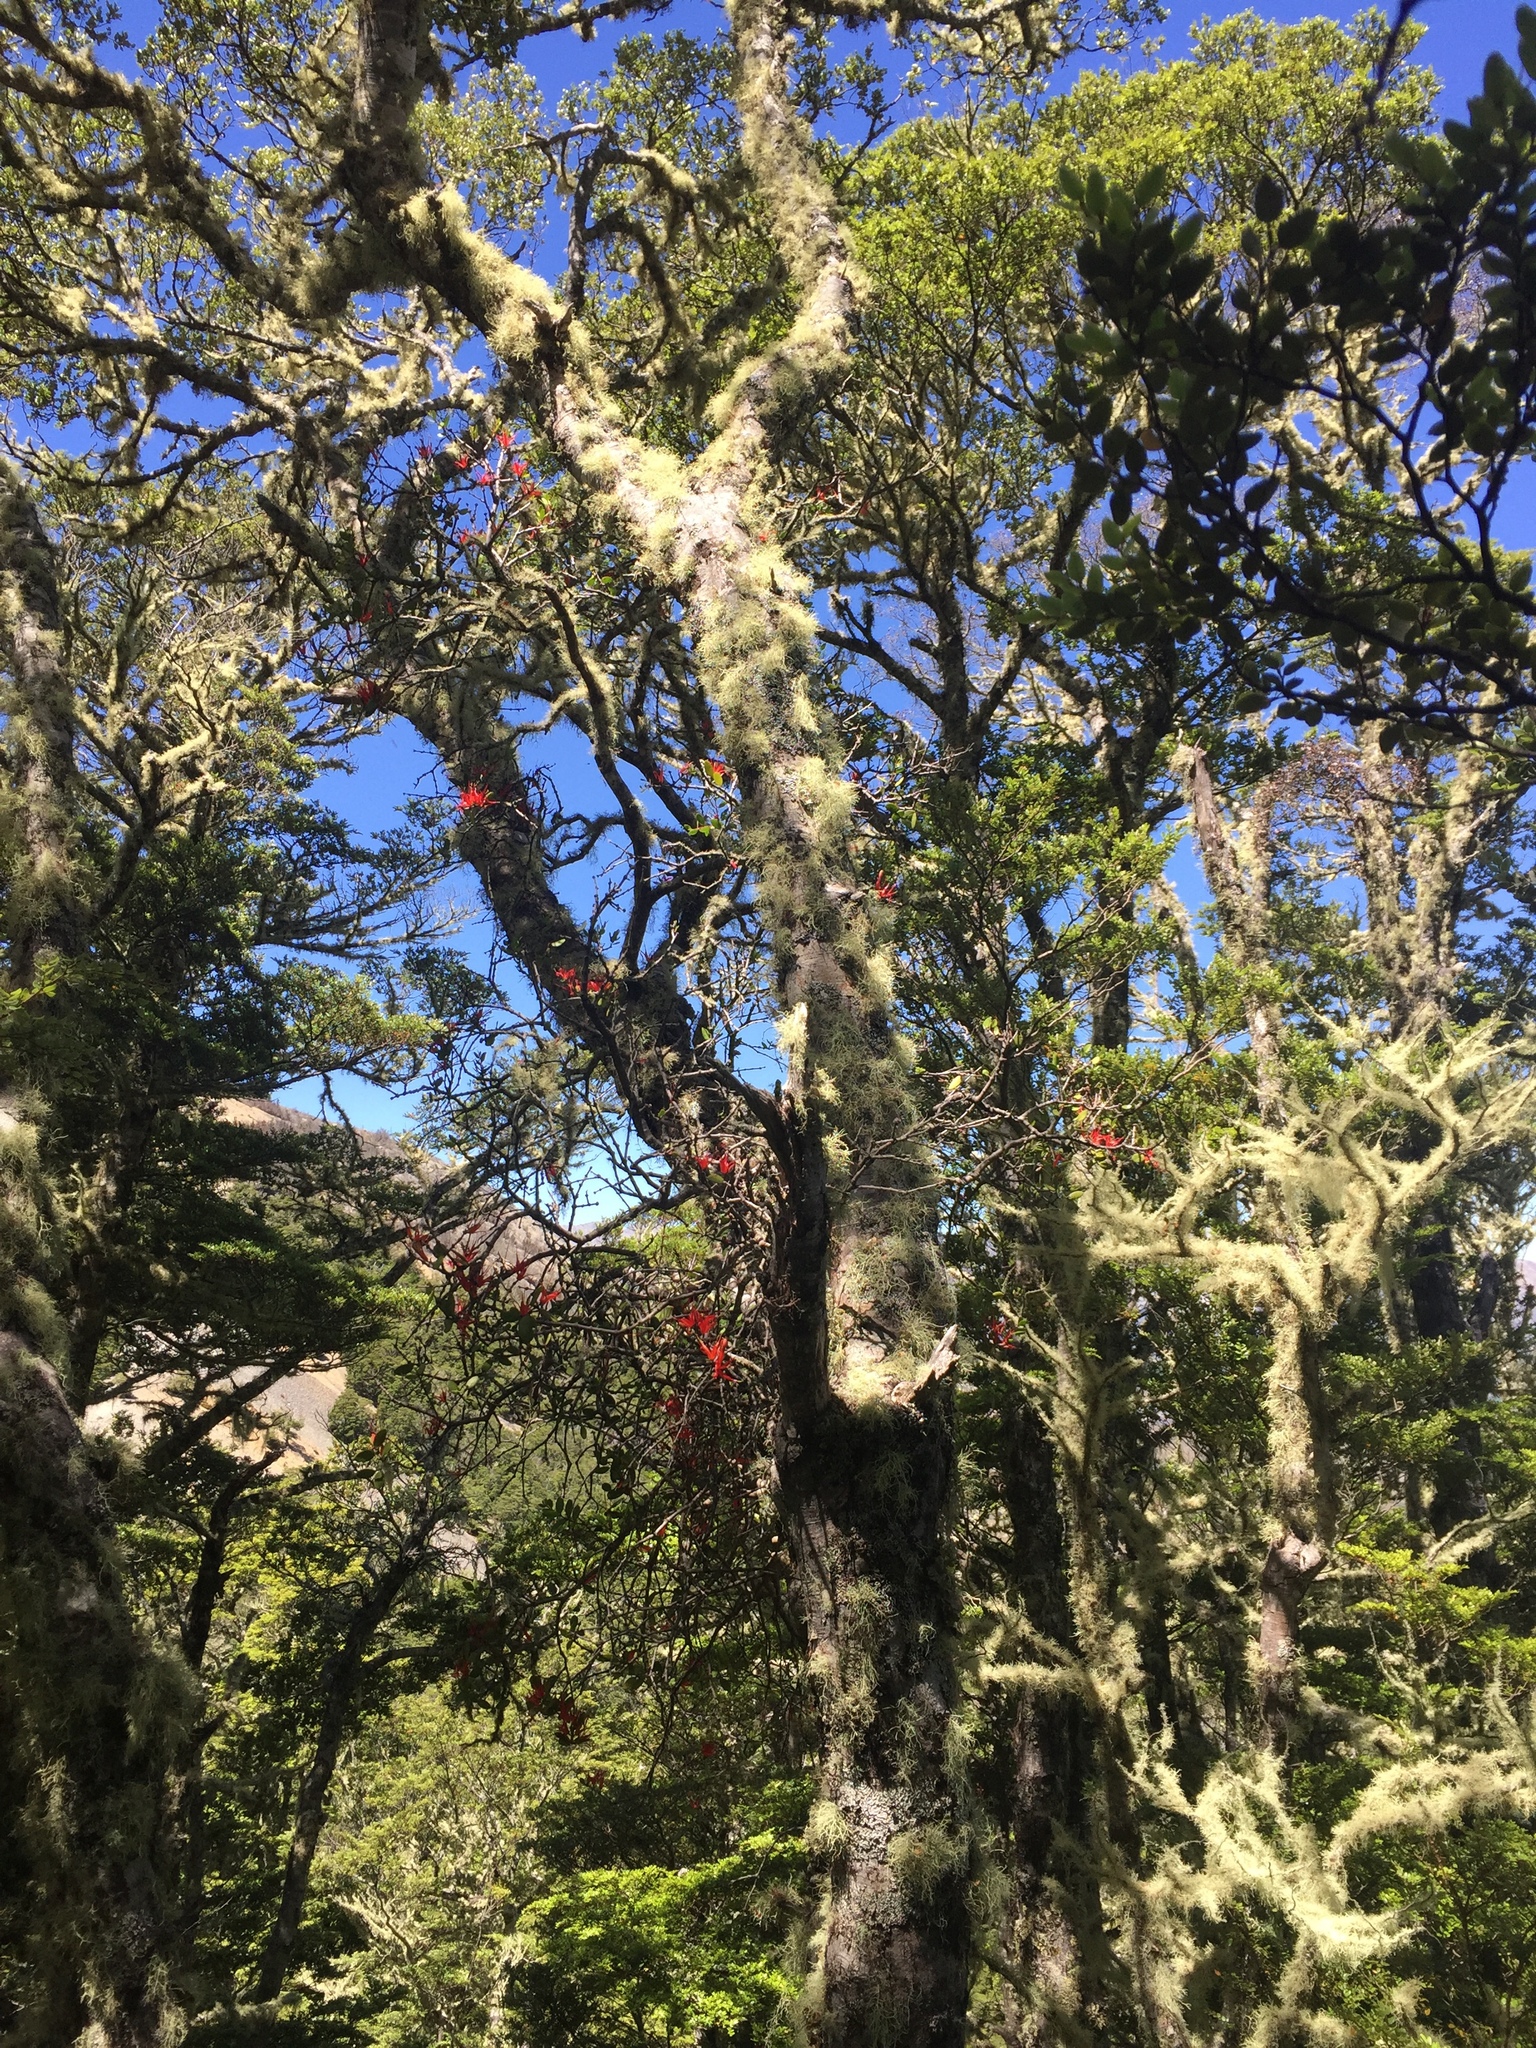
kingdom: Plantae
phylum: Tracheophyta
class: Magnoliopsida
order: Santalales
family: Loranthaceae
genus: Peraxilla
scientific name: Peraxilla tetrapetala
